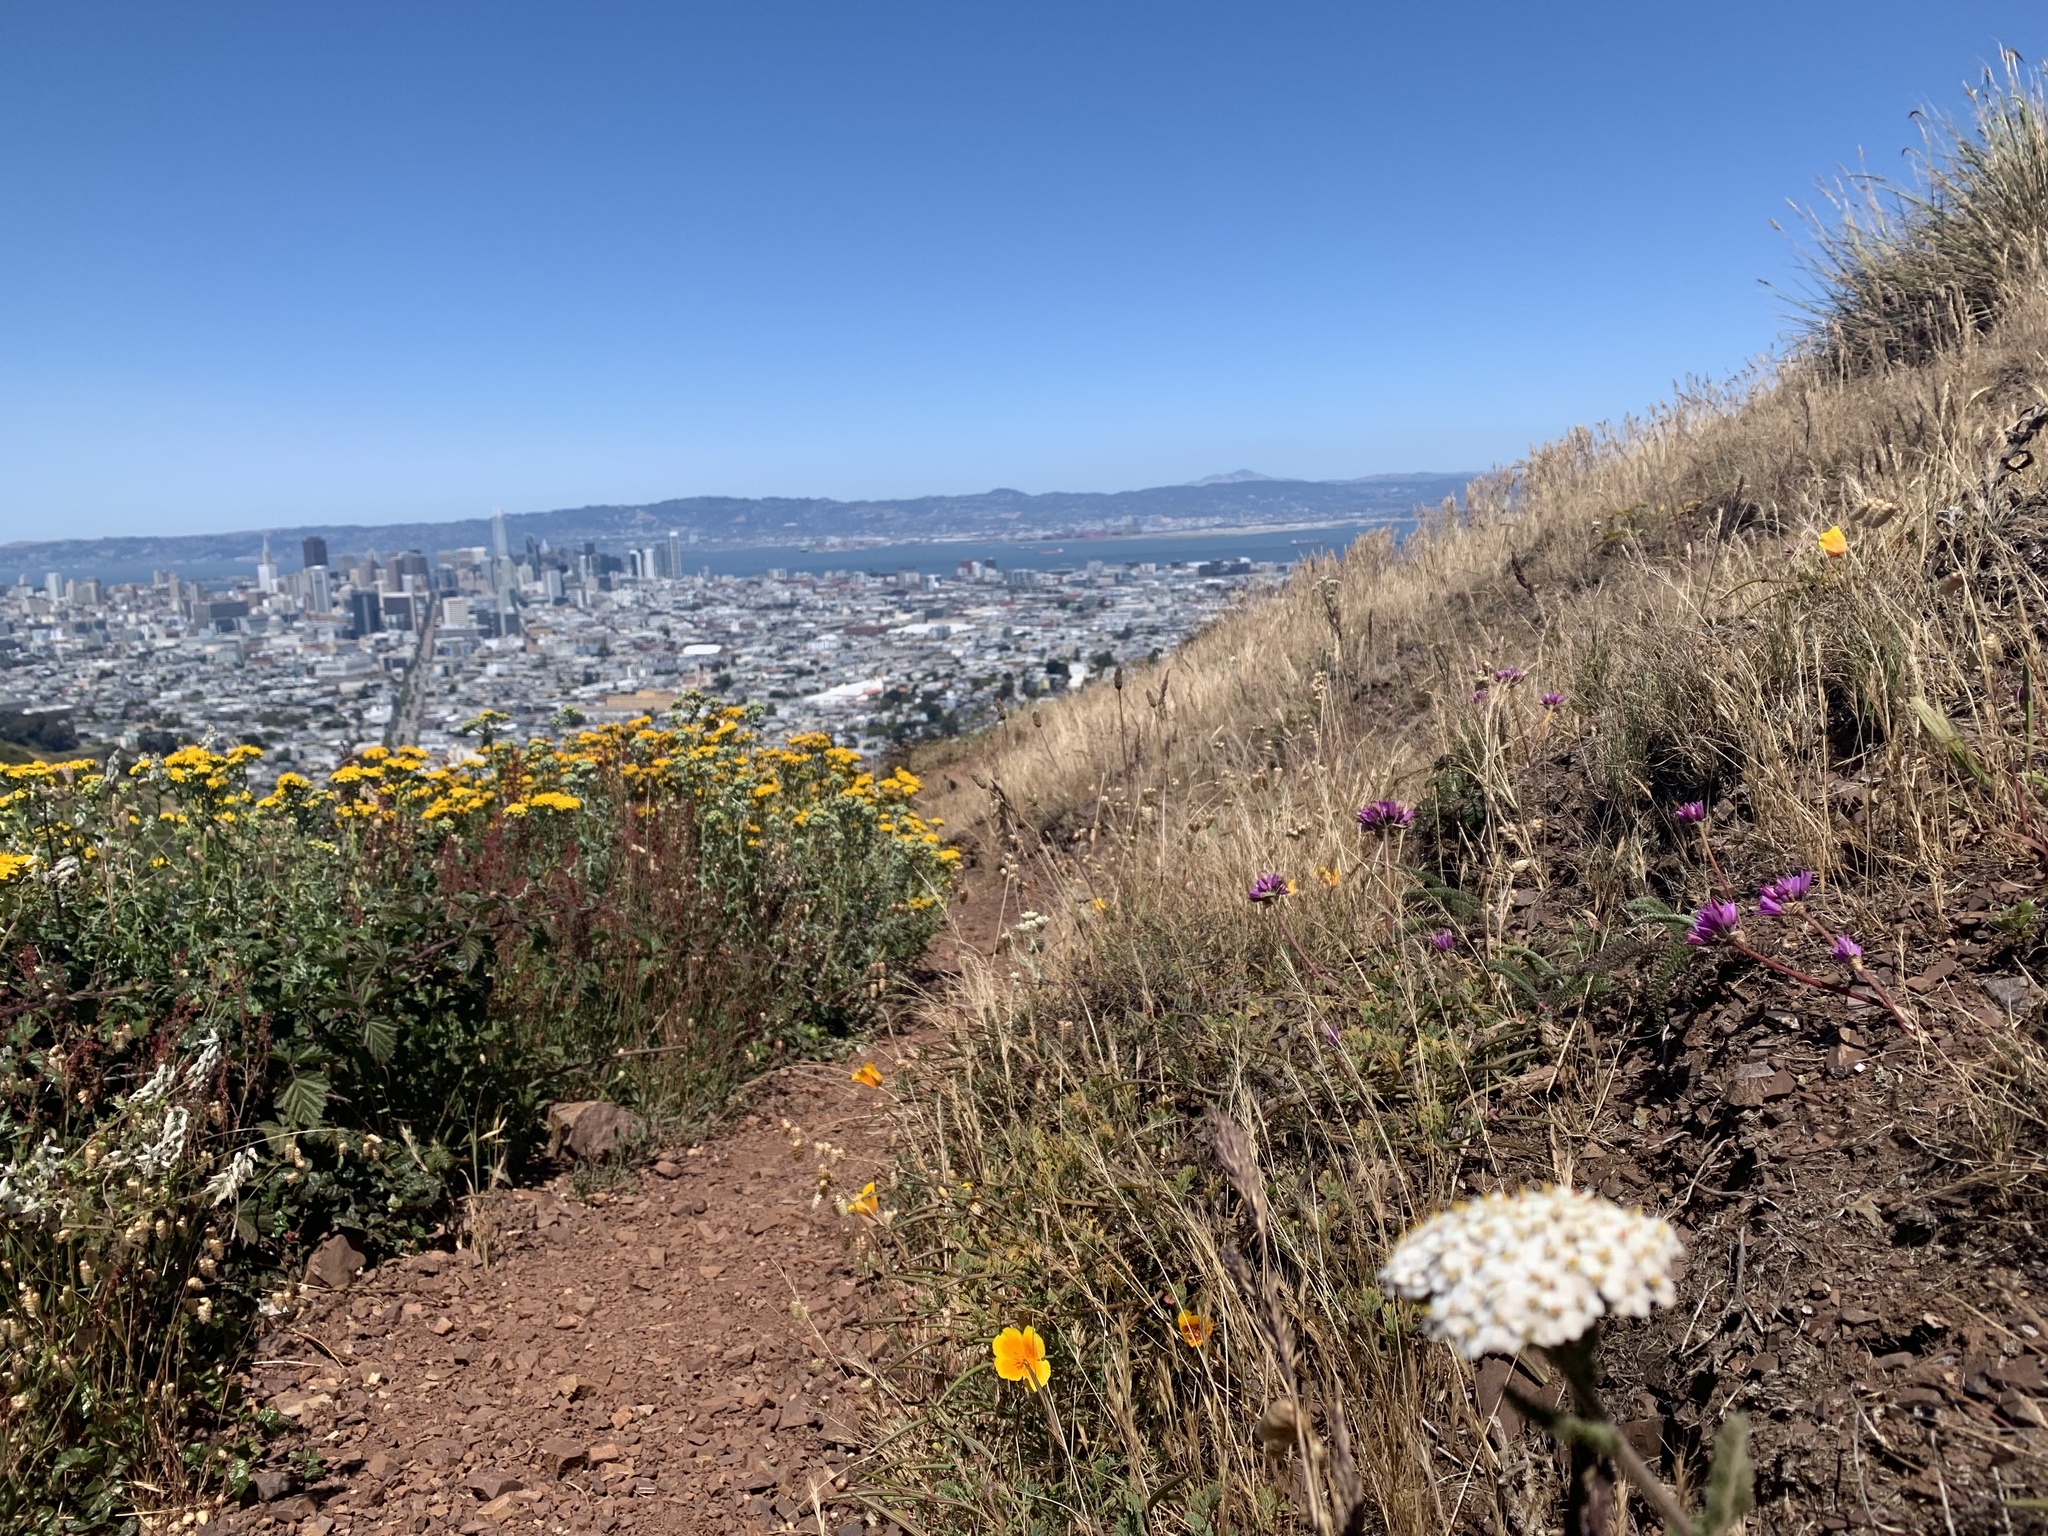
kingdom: Plantae
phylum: Tracheophyta
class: Liliopsida
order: Asparagales
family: Amaryllidaceae
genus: Allium
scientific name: Allium dichlamydeum
